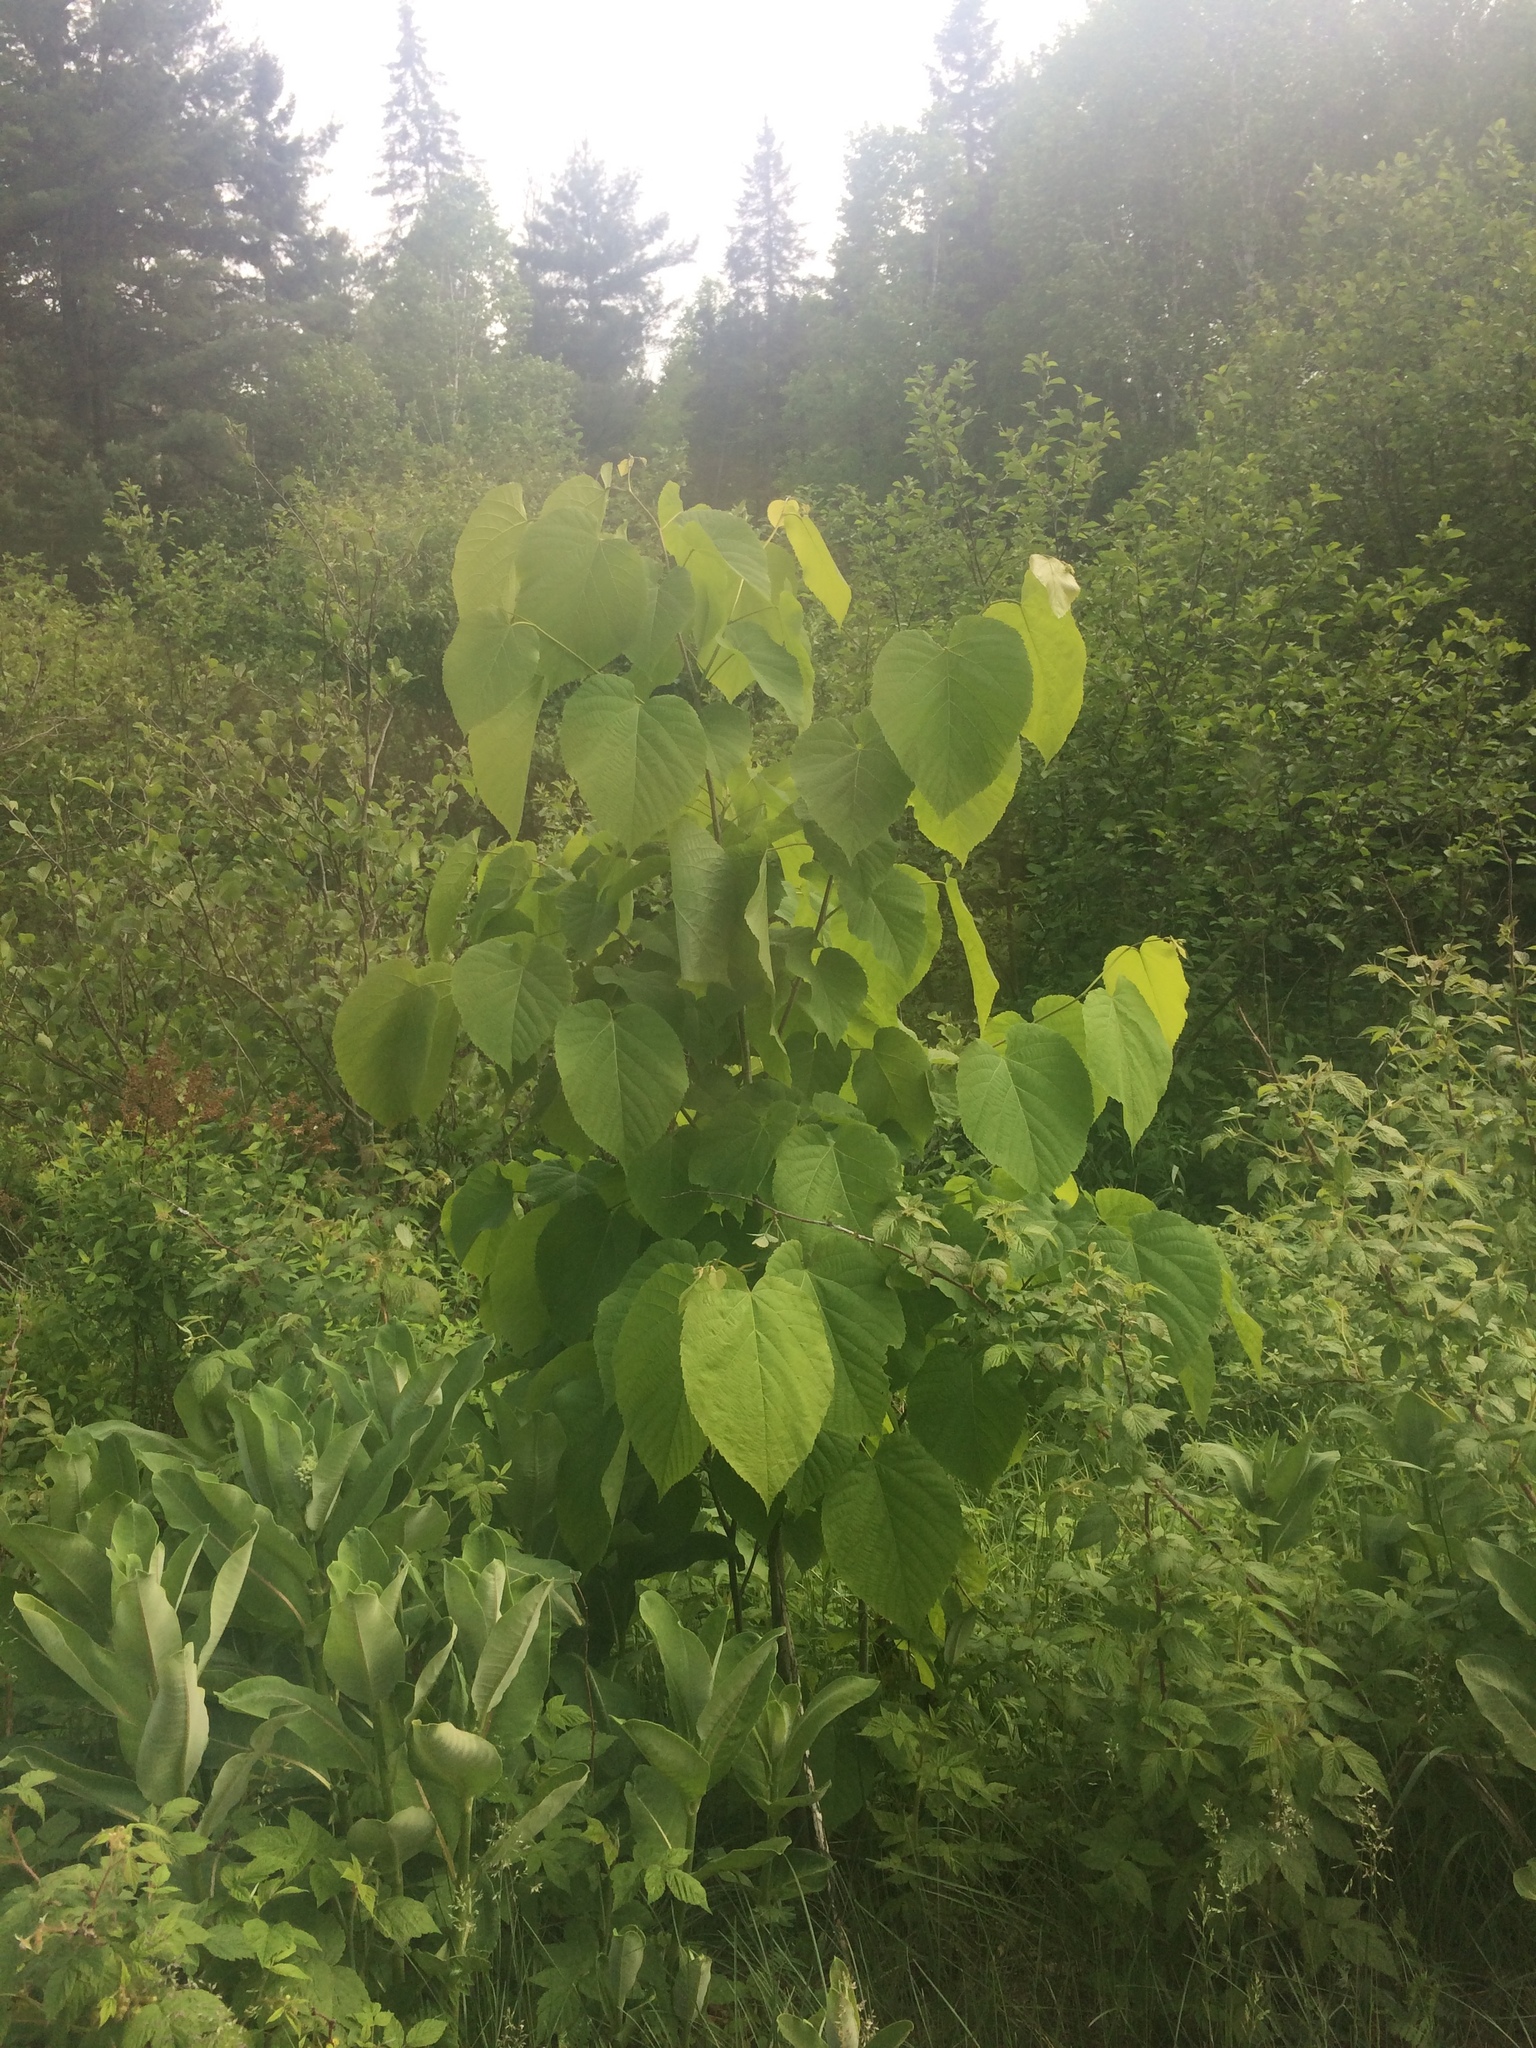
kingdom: Plantae
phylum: Tracheophyta
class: Magnoliopsida
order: Malvales
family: Malvaceae
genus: Tilia
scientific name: Tilia americana
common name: Basswood
